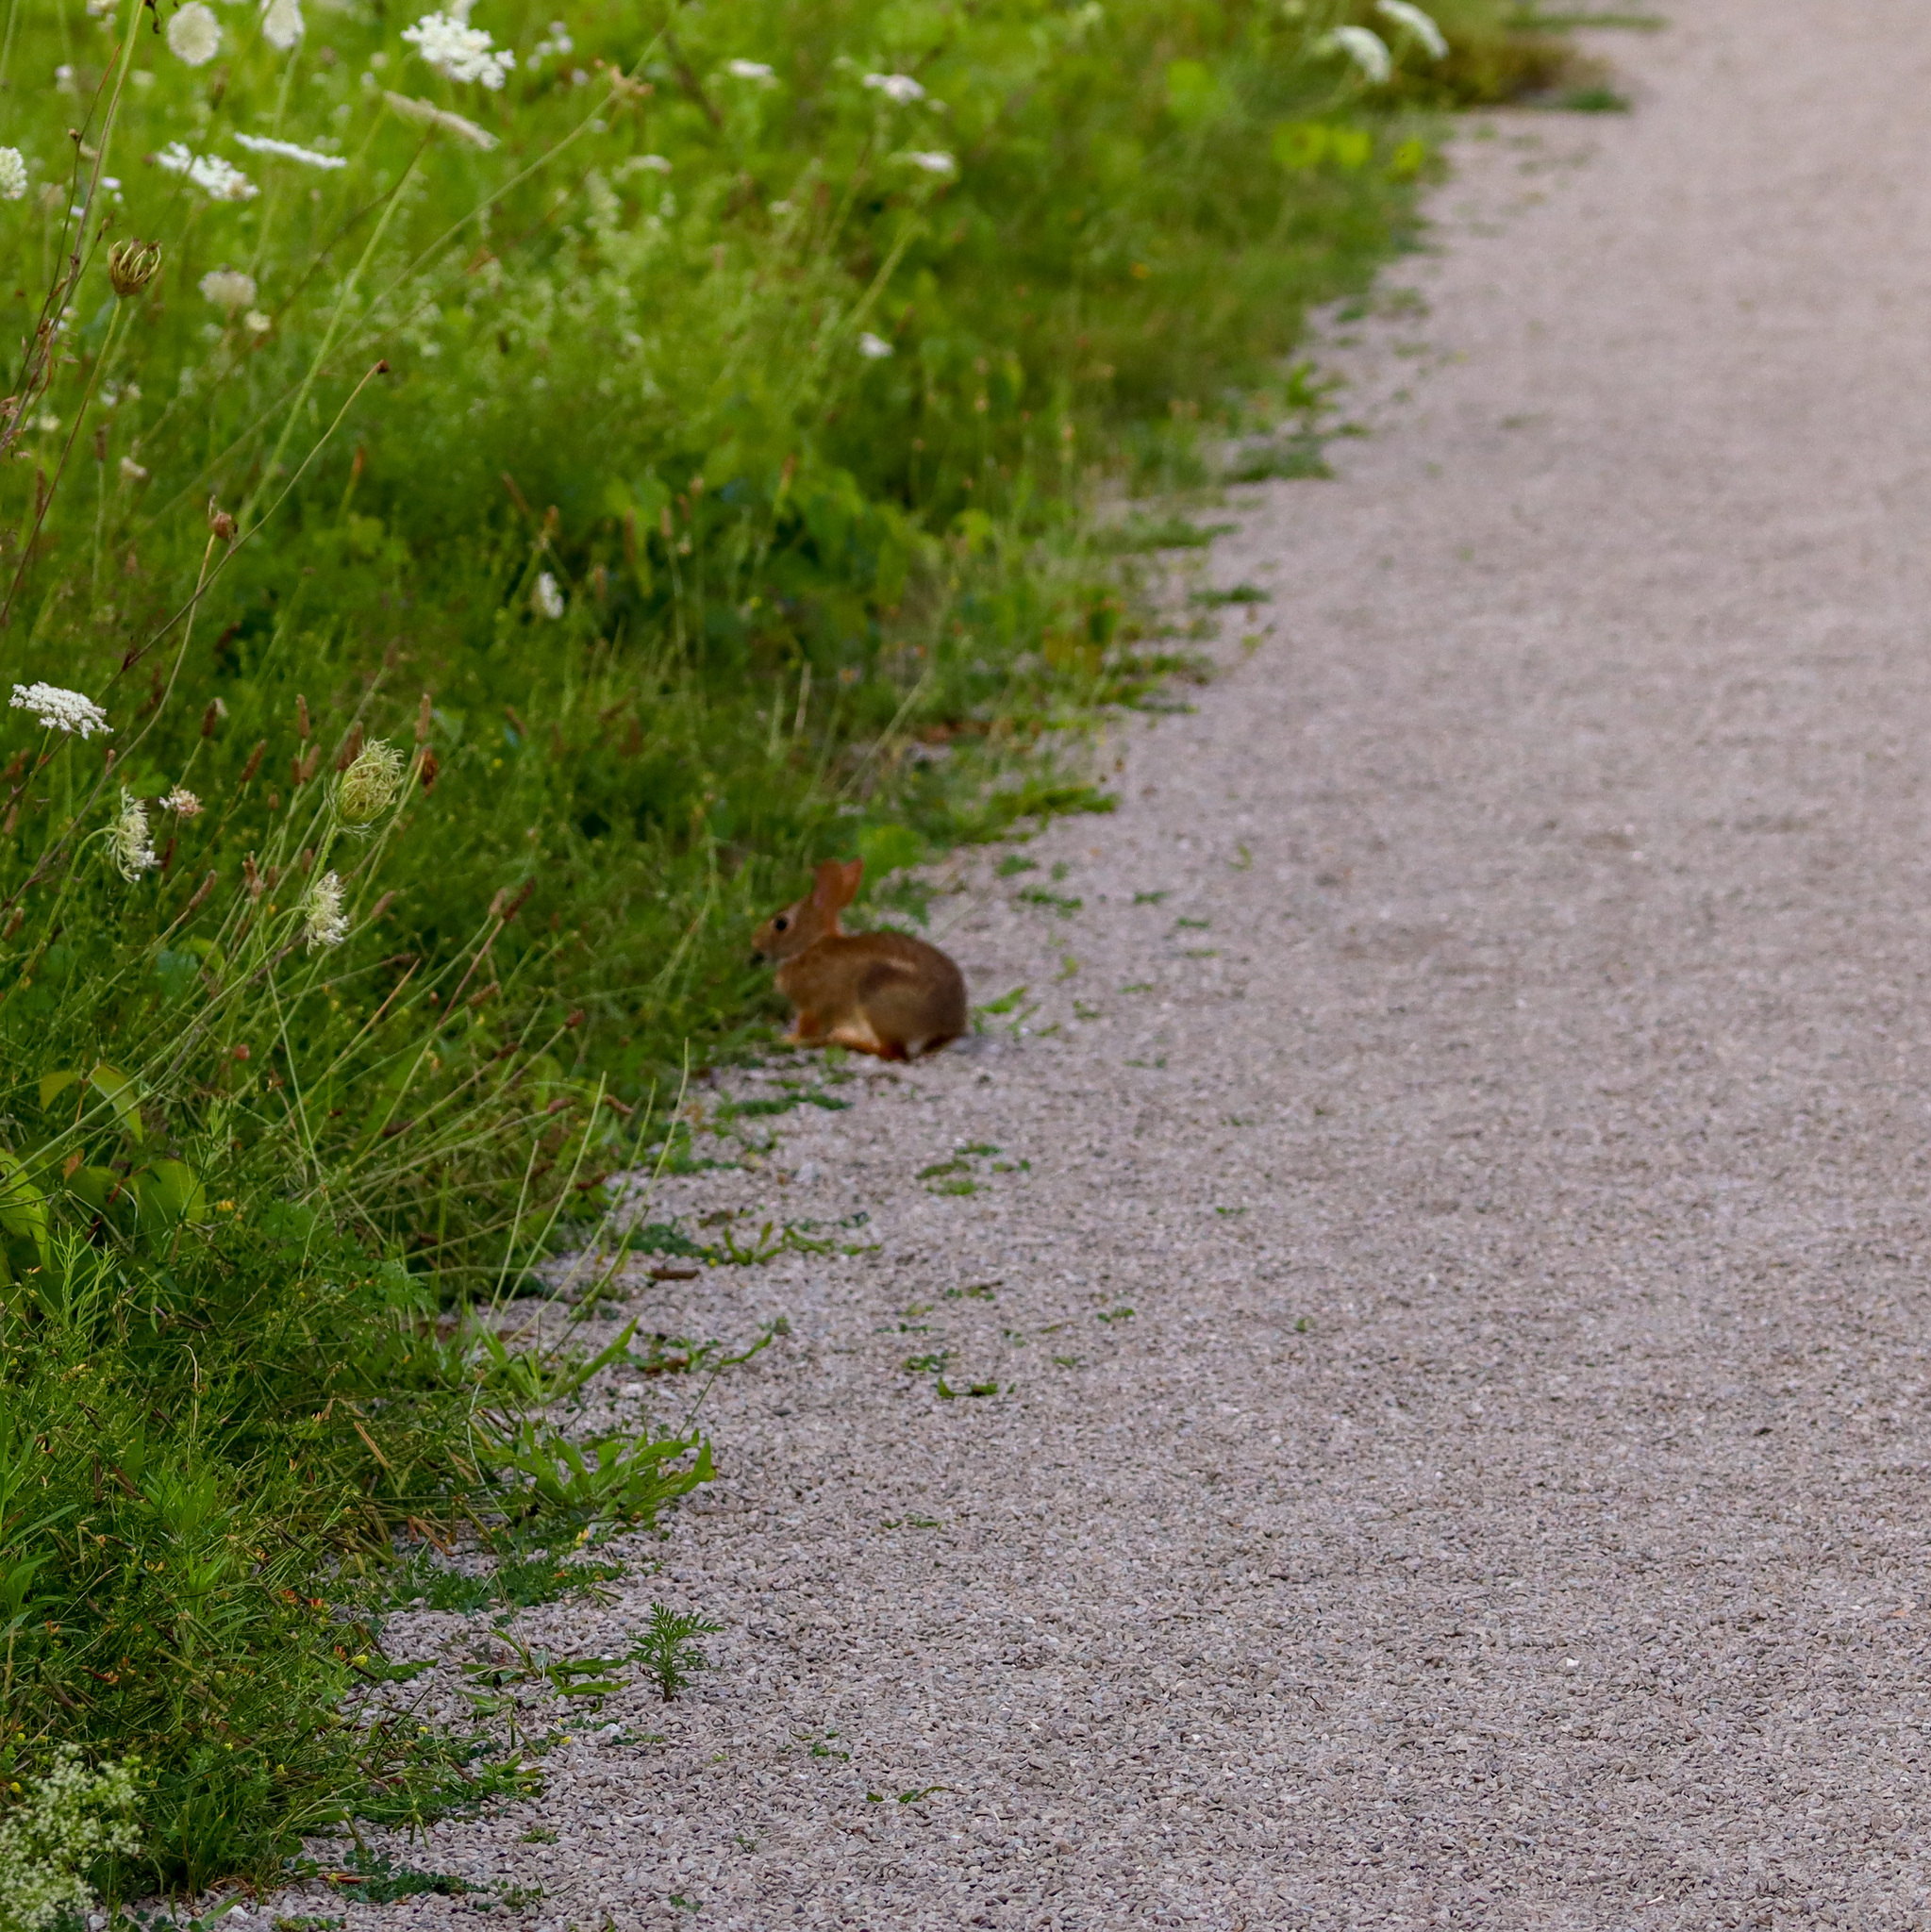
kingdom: Animalia
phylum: Chordata
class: Mammalia
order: Lagomorpha
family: Leporidae
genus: Sylvilagus
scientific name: Sylvilagus floridanus
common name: Eastern cottontail
